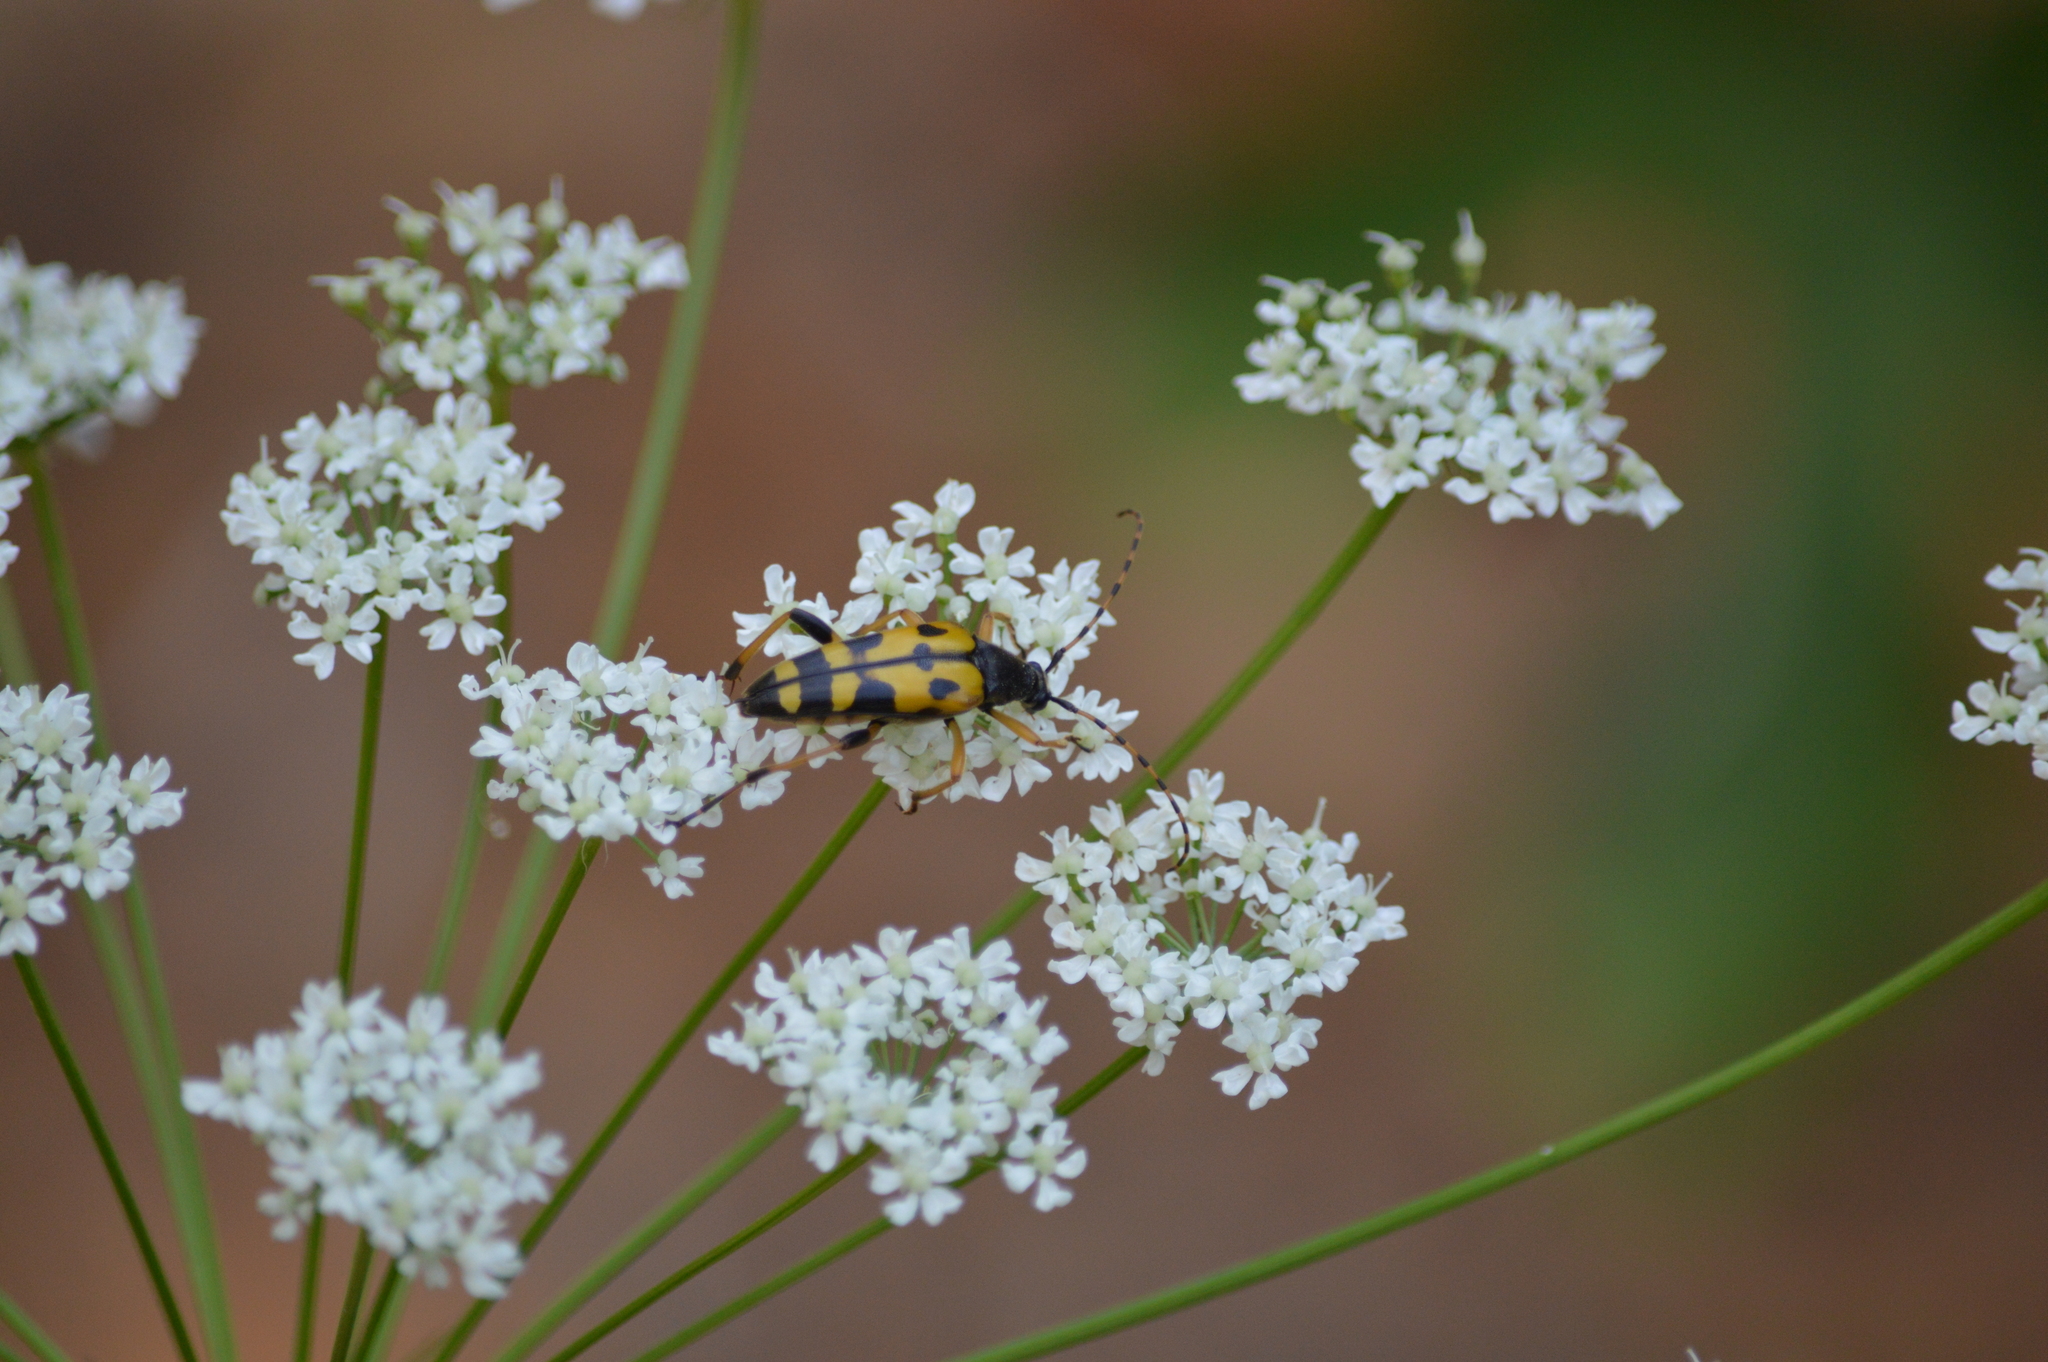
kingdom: Animalia
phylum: Arthropoda
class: Insecta
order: Coleoptera
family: Cerambycidae
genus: Rutpela
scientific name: Rutpela maculata
